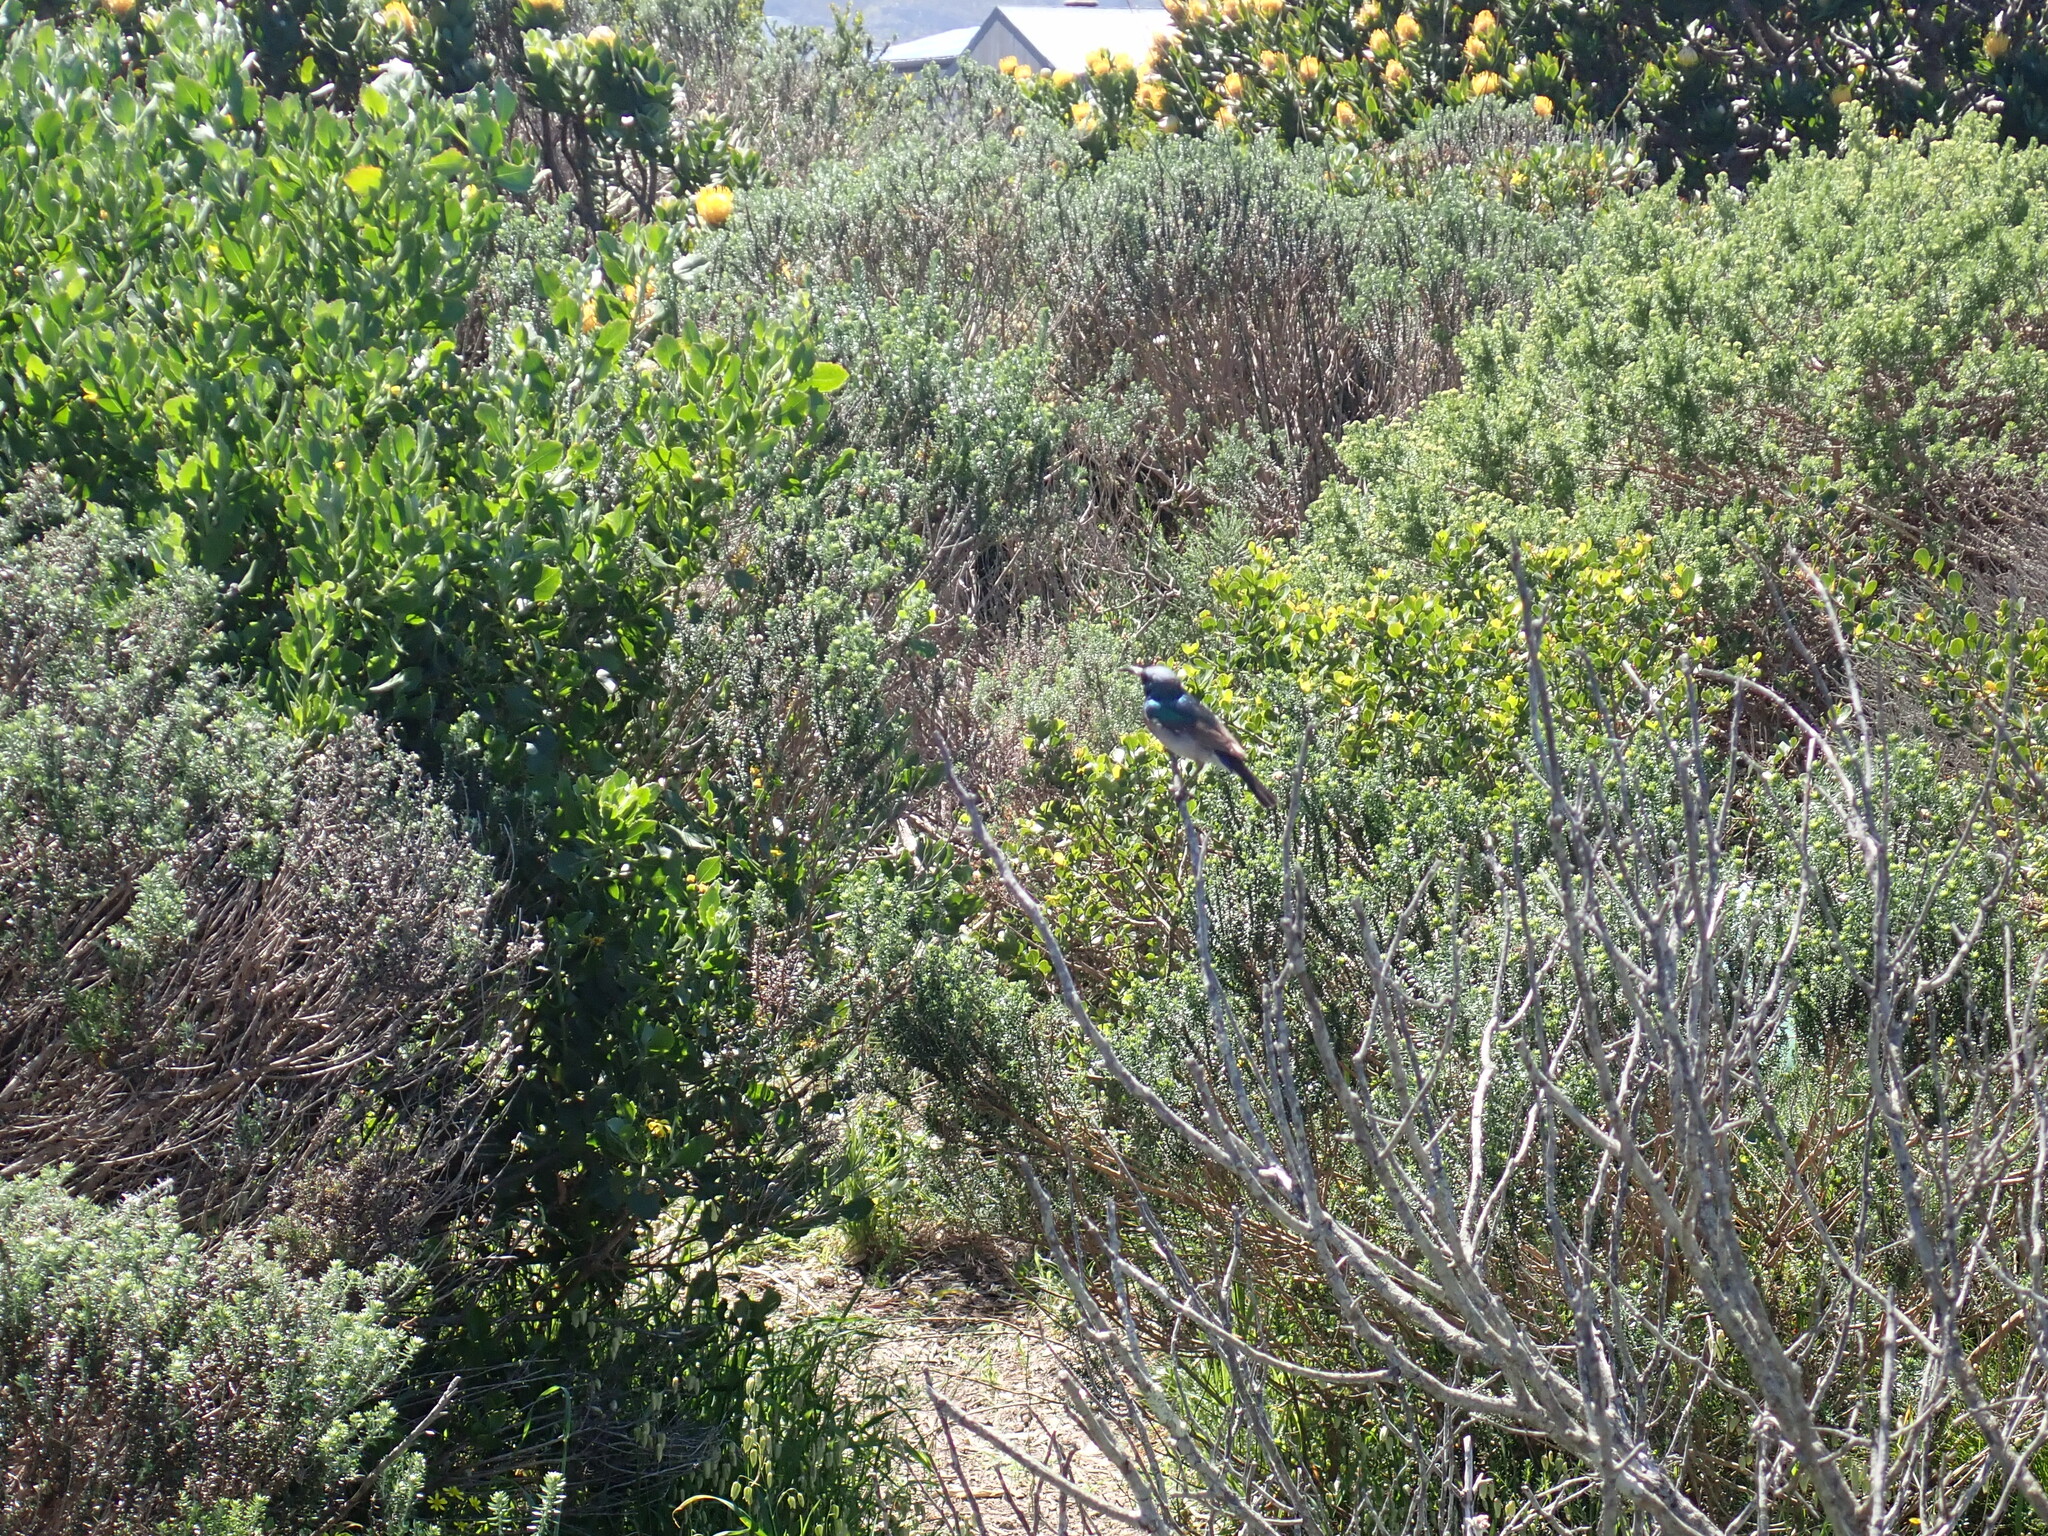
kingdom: Animalia
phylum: Chordata
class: Aves
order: Passeriformes
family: Nectariniidae
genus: Cinnyris
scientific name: Cinnyris chalybeus
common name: Southern double-collared sunbird
